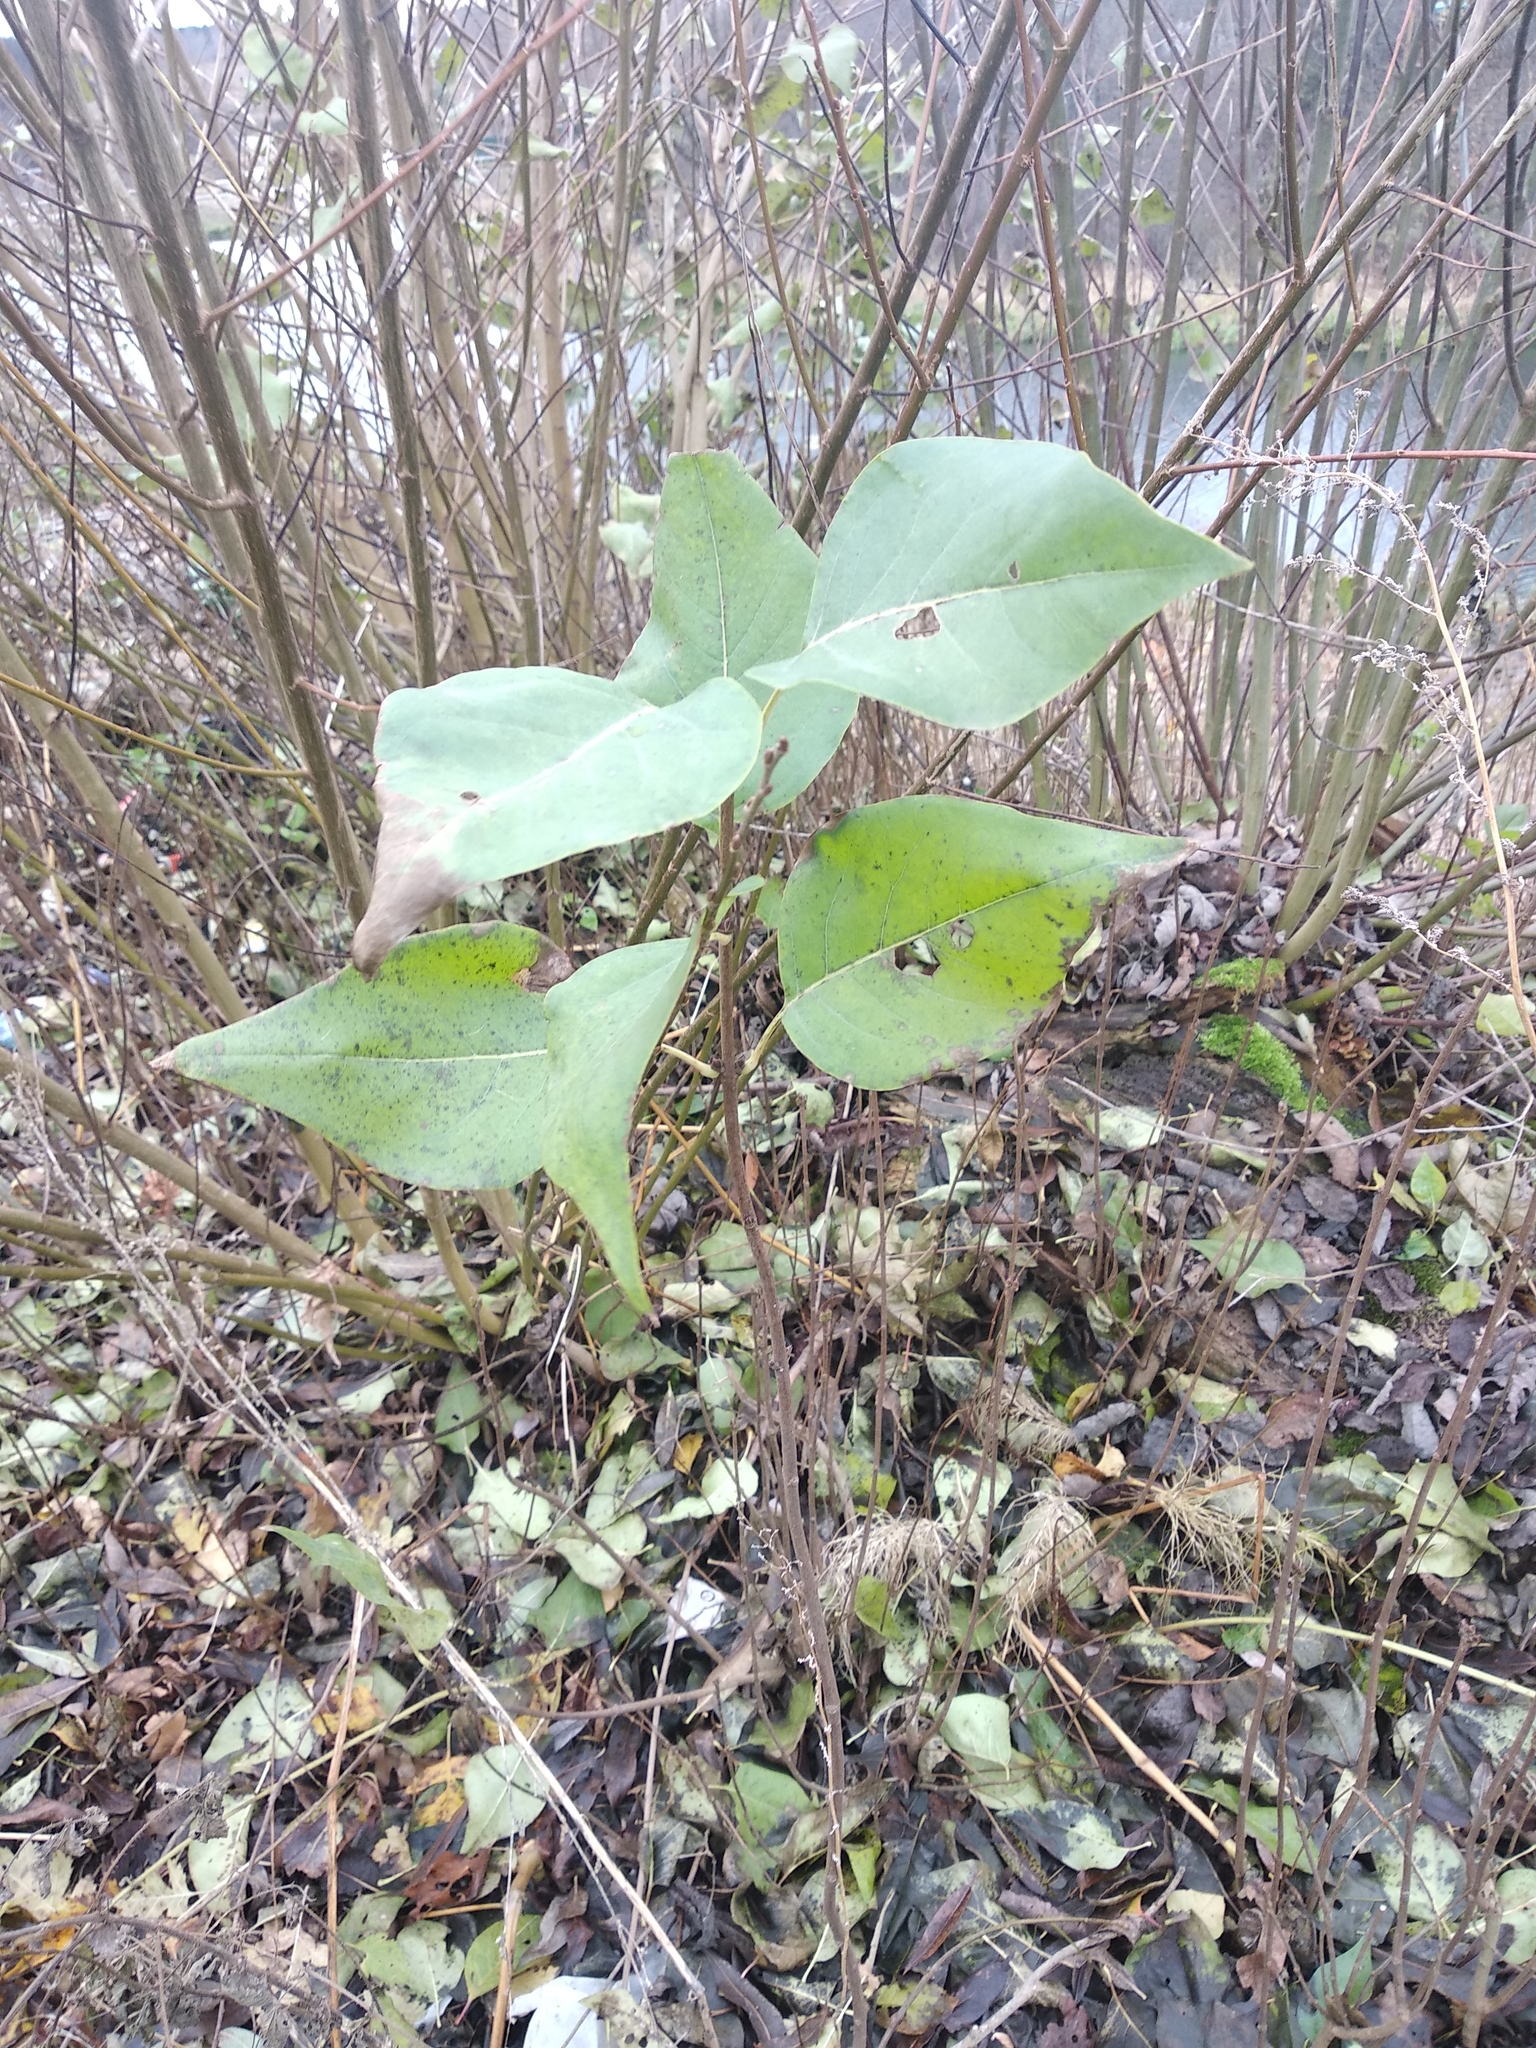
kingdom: Plantae
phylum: Tracheophyta
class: Magnoliopsida
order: Lamiales
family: Oleaceae
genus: Syringa
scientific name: Syringa vulgaris
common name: Common lilac
